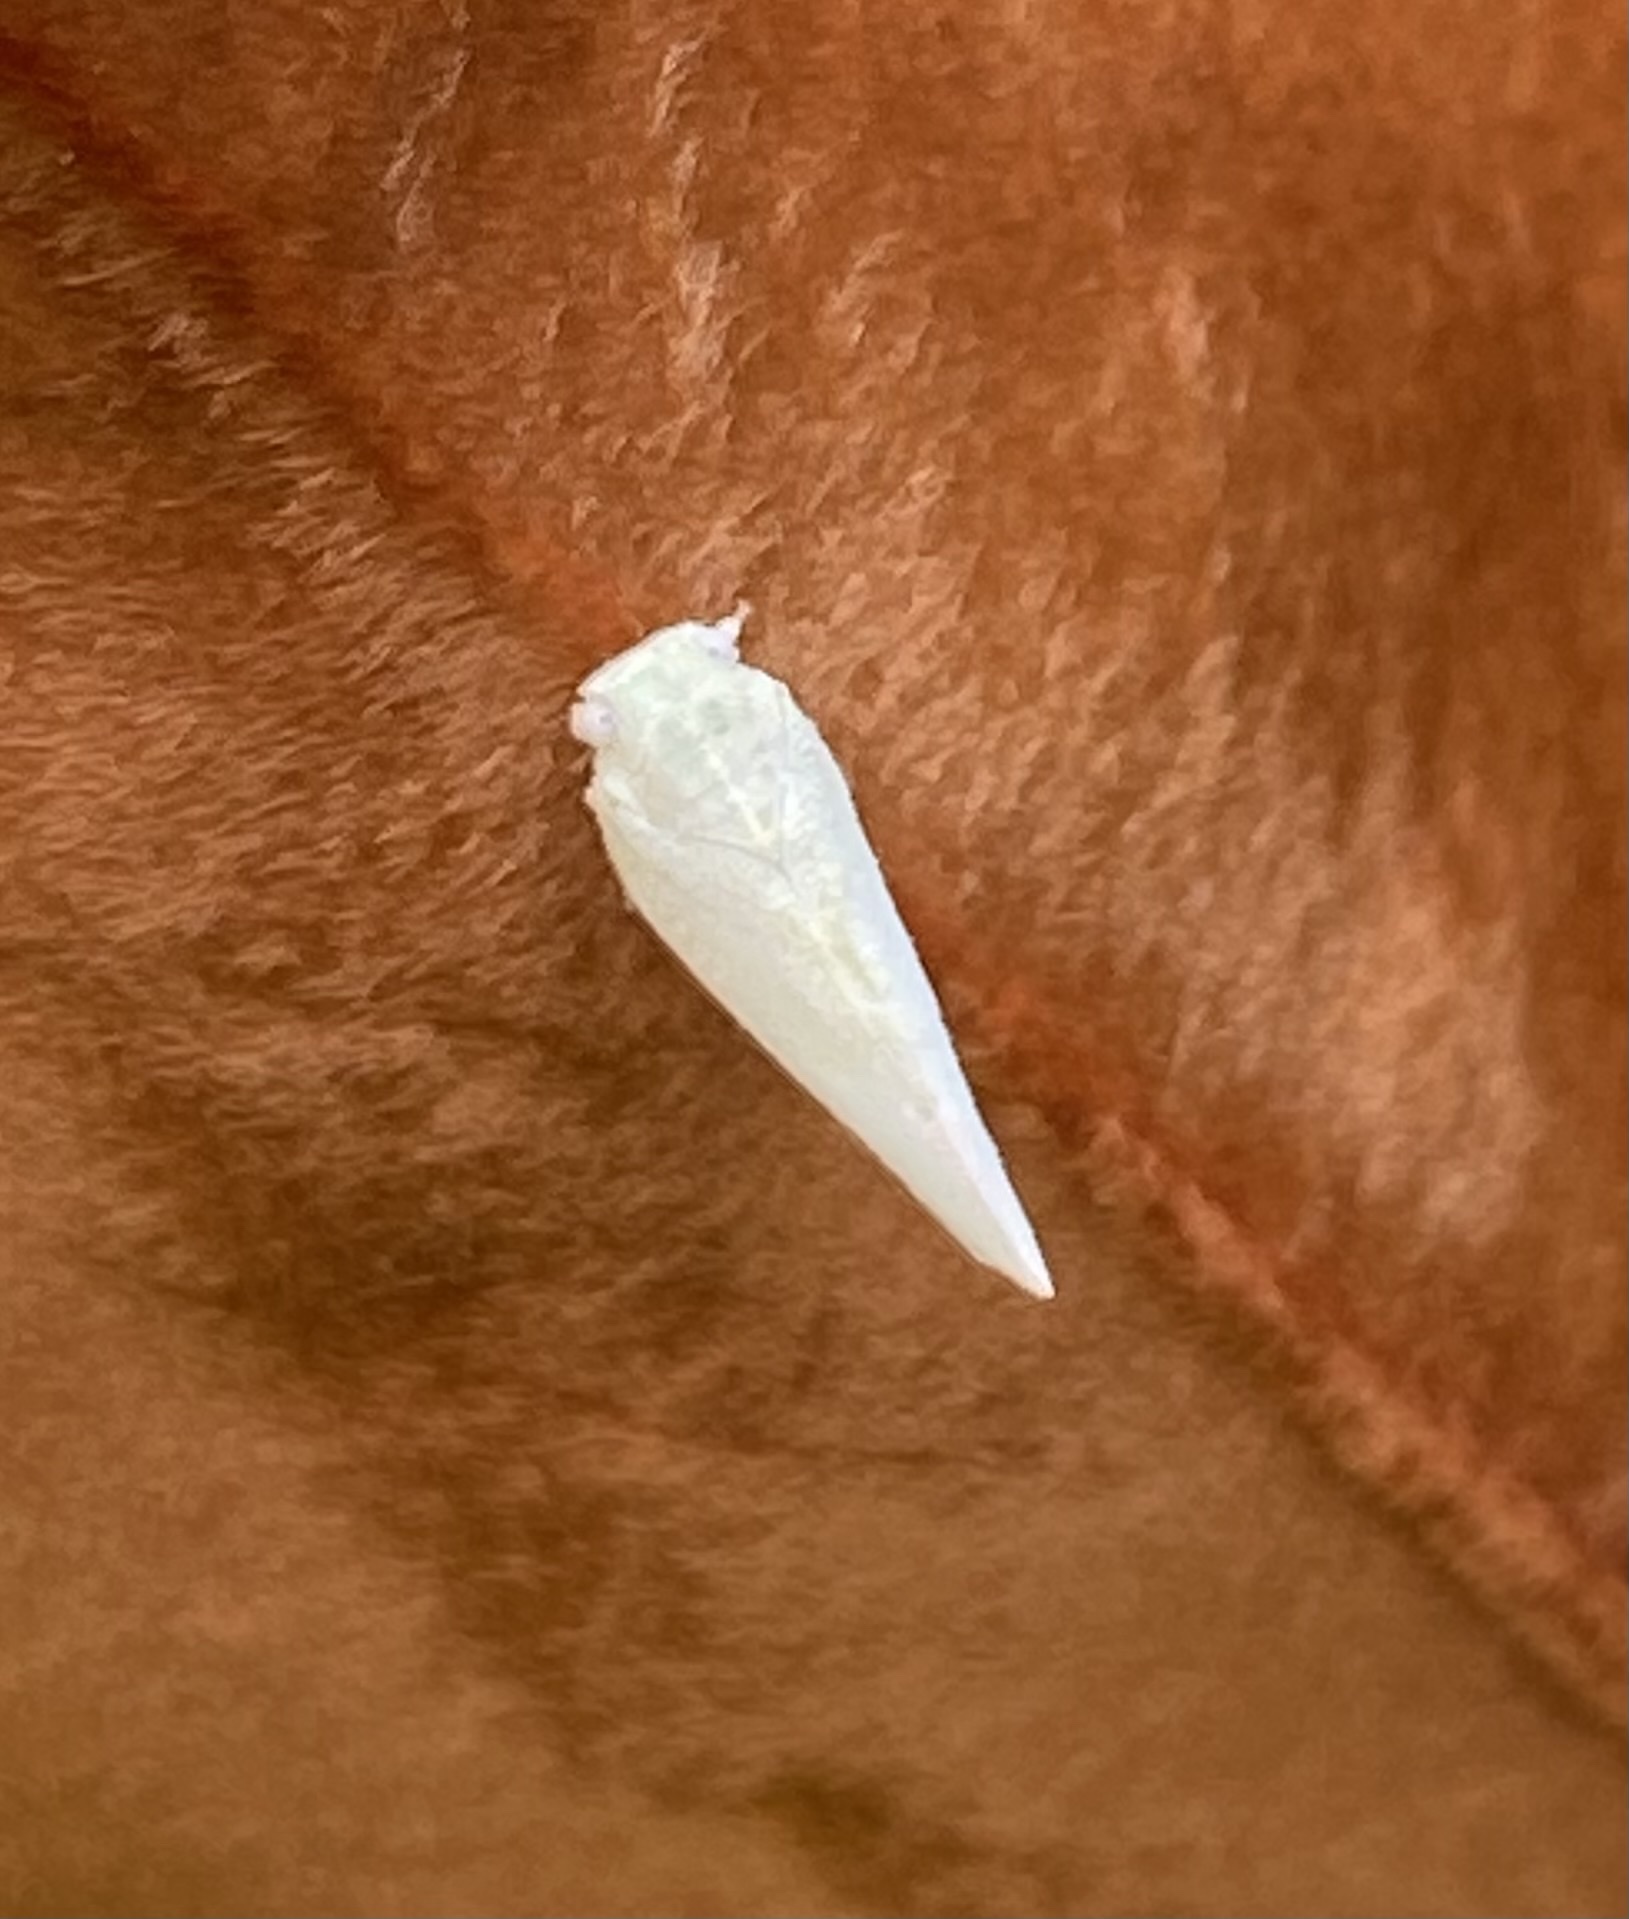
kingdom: Animalia
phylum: Arthropoda
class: Insecta
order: Hemiptera
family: Flatidae
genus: Flatormenis
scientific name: Flatormenis proxima
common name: Northern flatid planthopper
